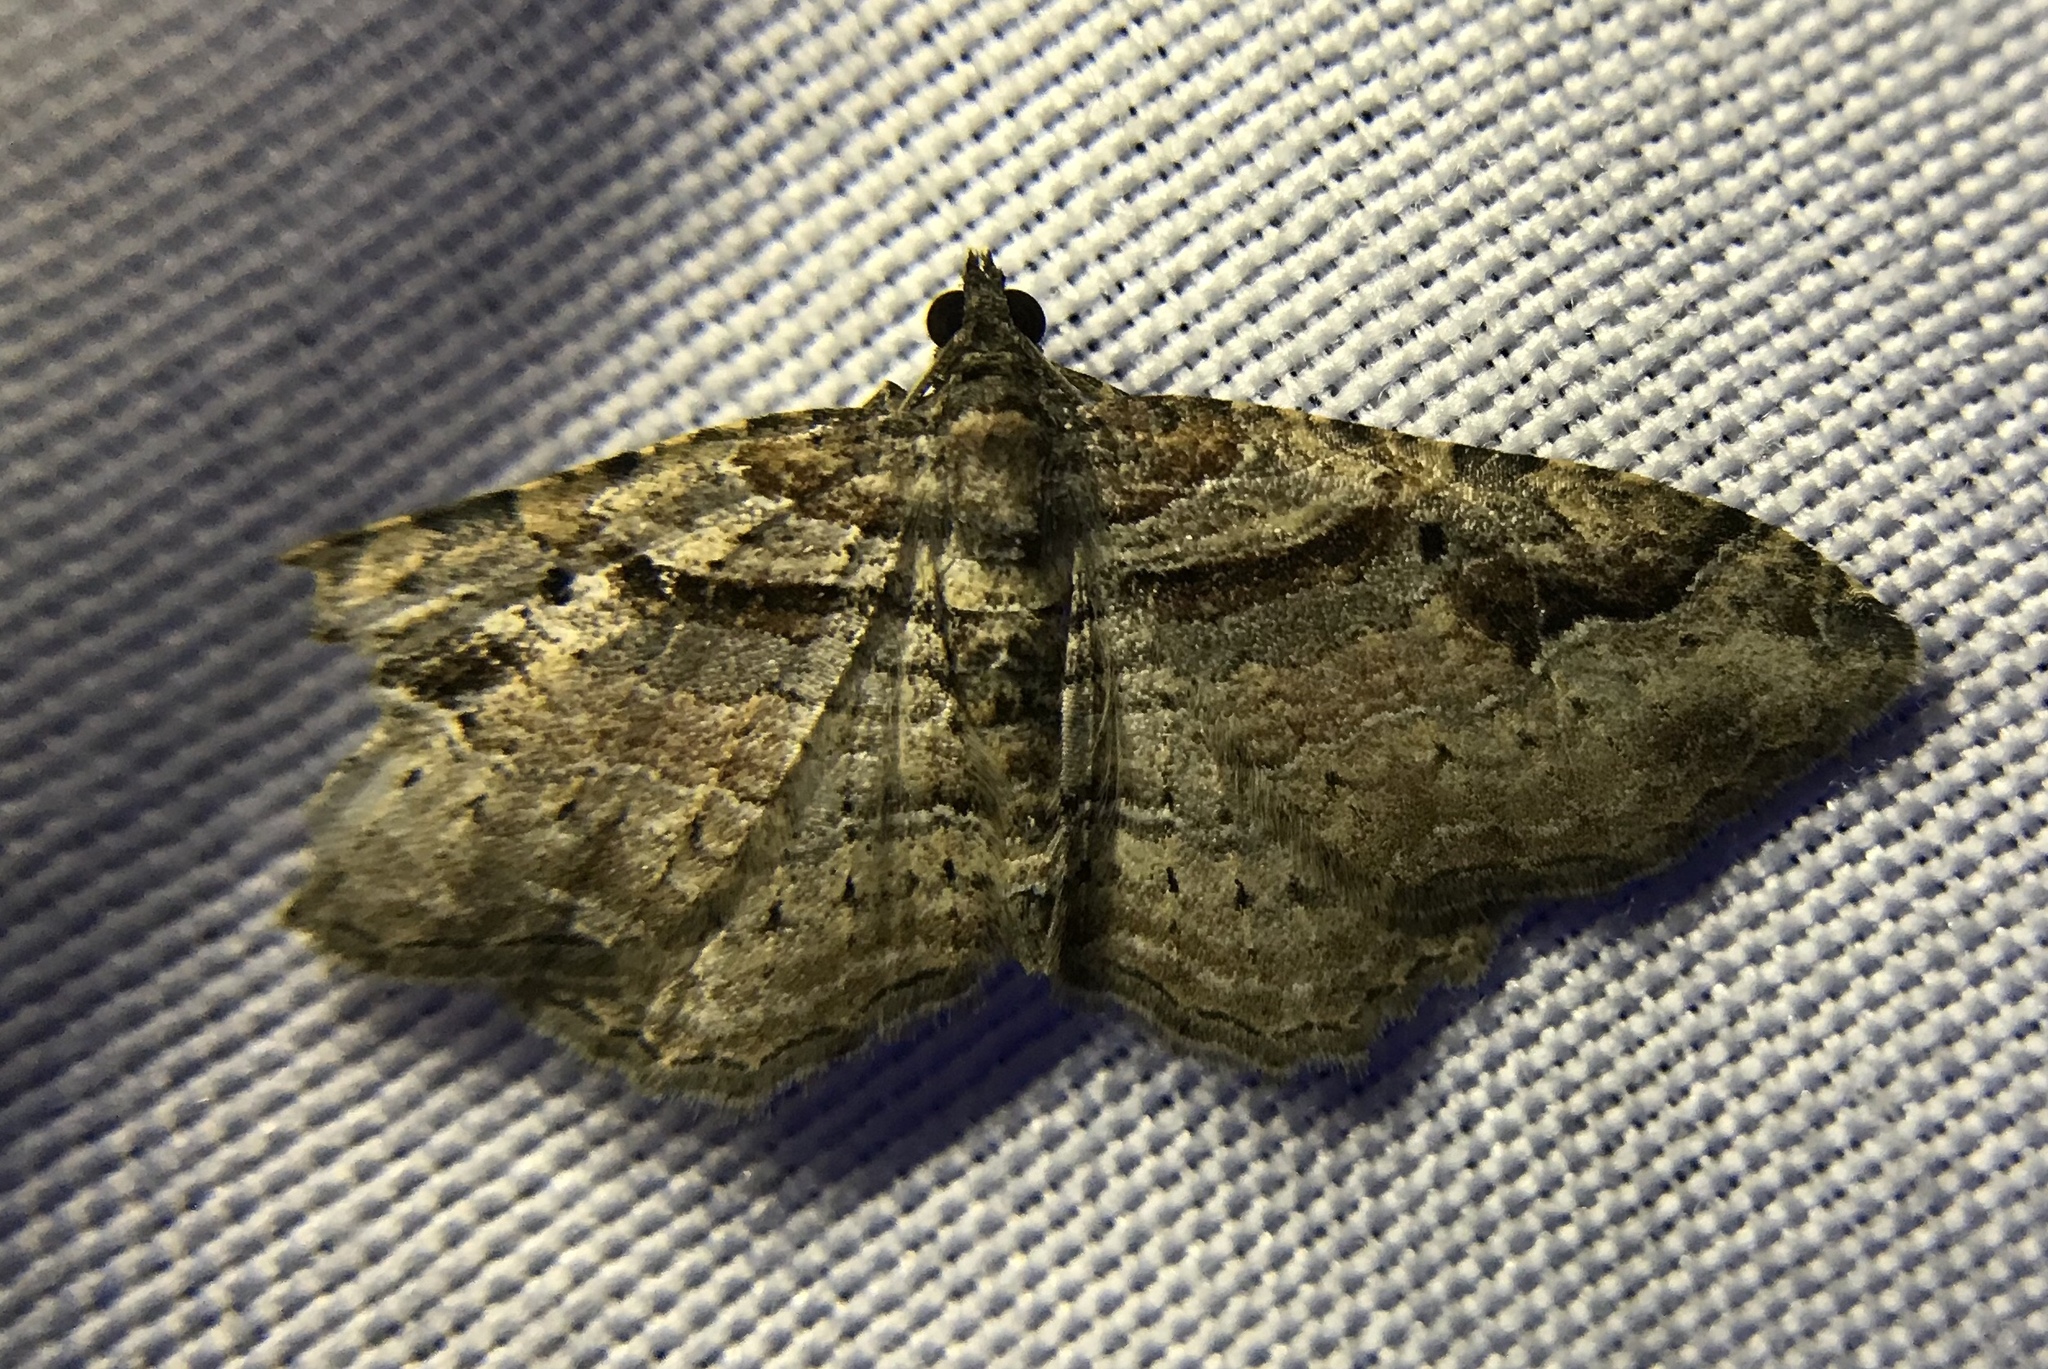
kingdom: Animalia
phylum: Arthropoda
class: Insecta
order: Lepidoptera
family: Geometridae
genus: Costaconvexa
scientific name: Costaconvexa centrostrigaria
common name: Bent-line carpet
